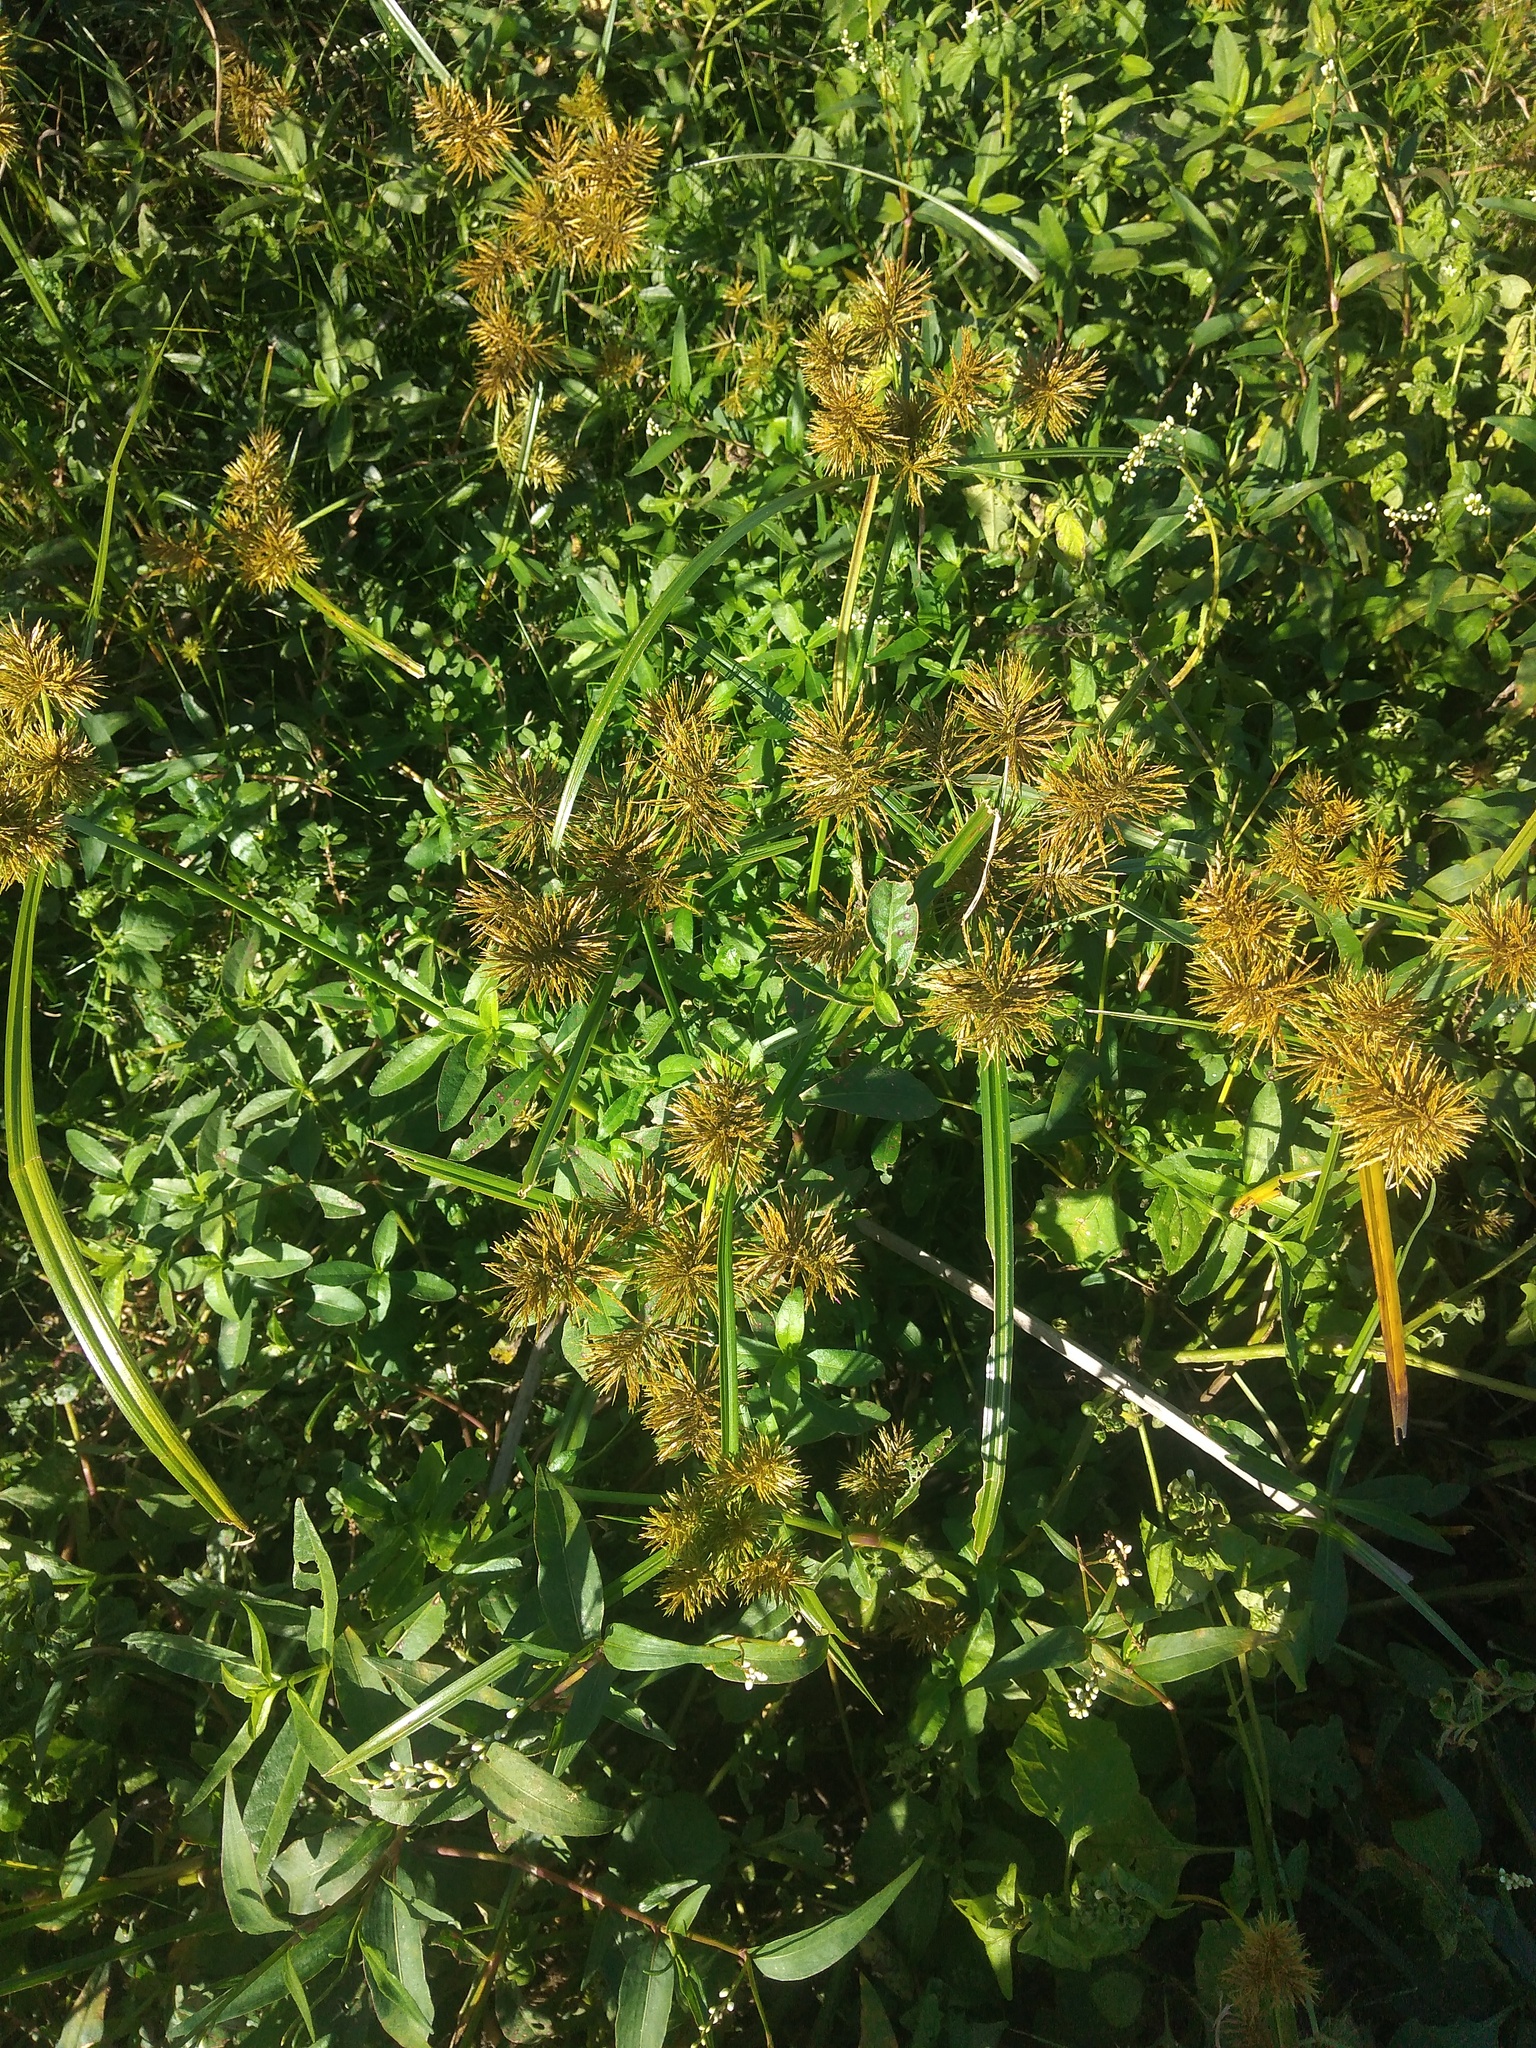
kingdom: Plantae
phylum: Tracheophyta
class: Liliopsida
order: Poales
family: Cyperaceae
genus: Cyperus
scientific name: Cyperus odoratus
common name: Fragrant flatsedge
